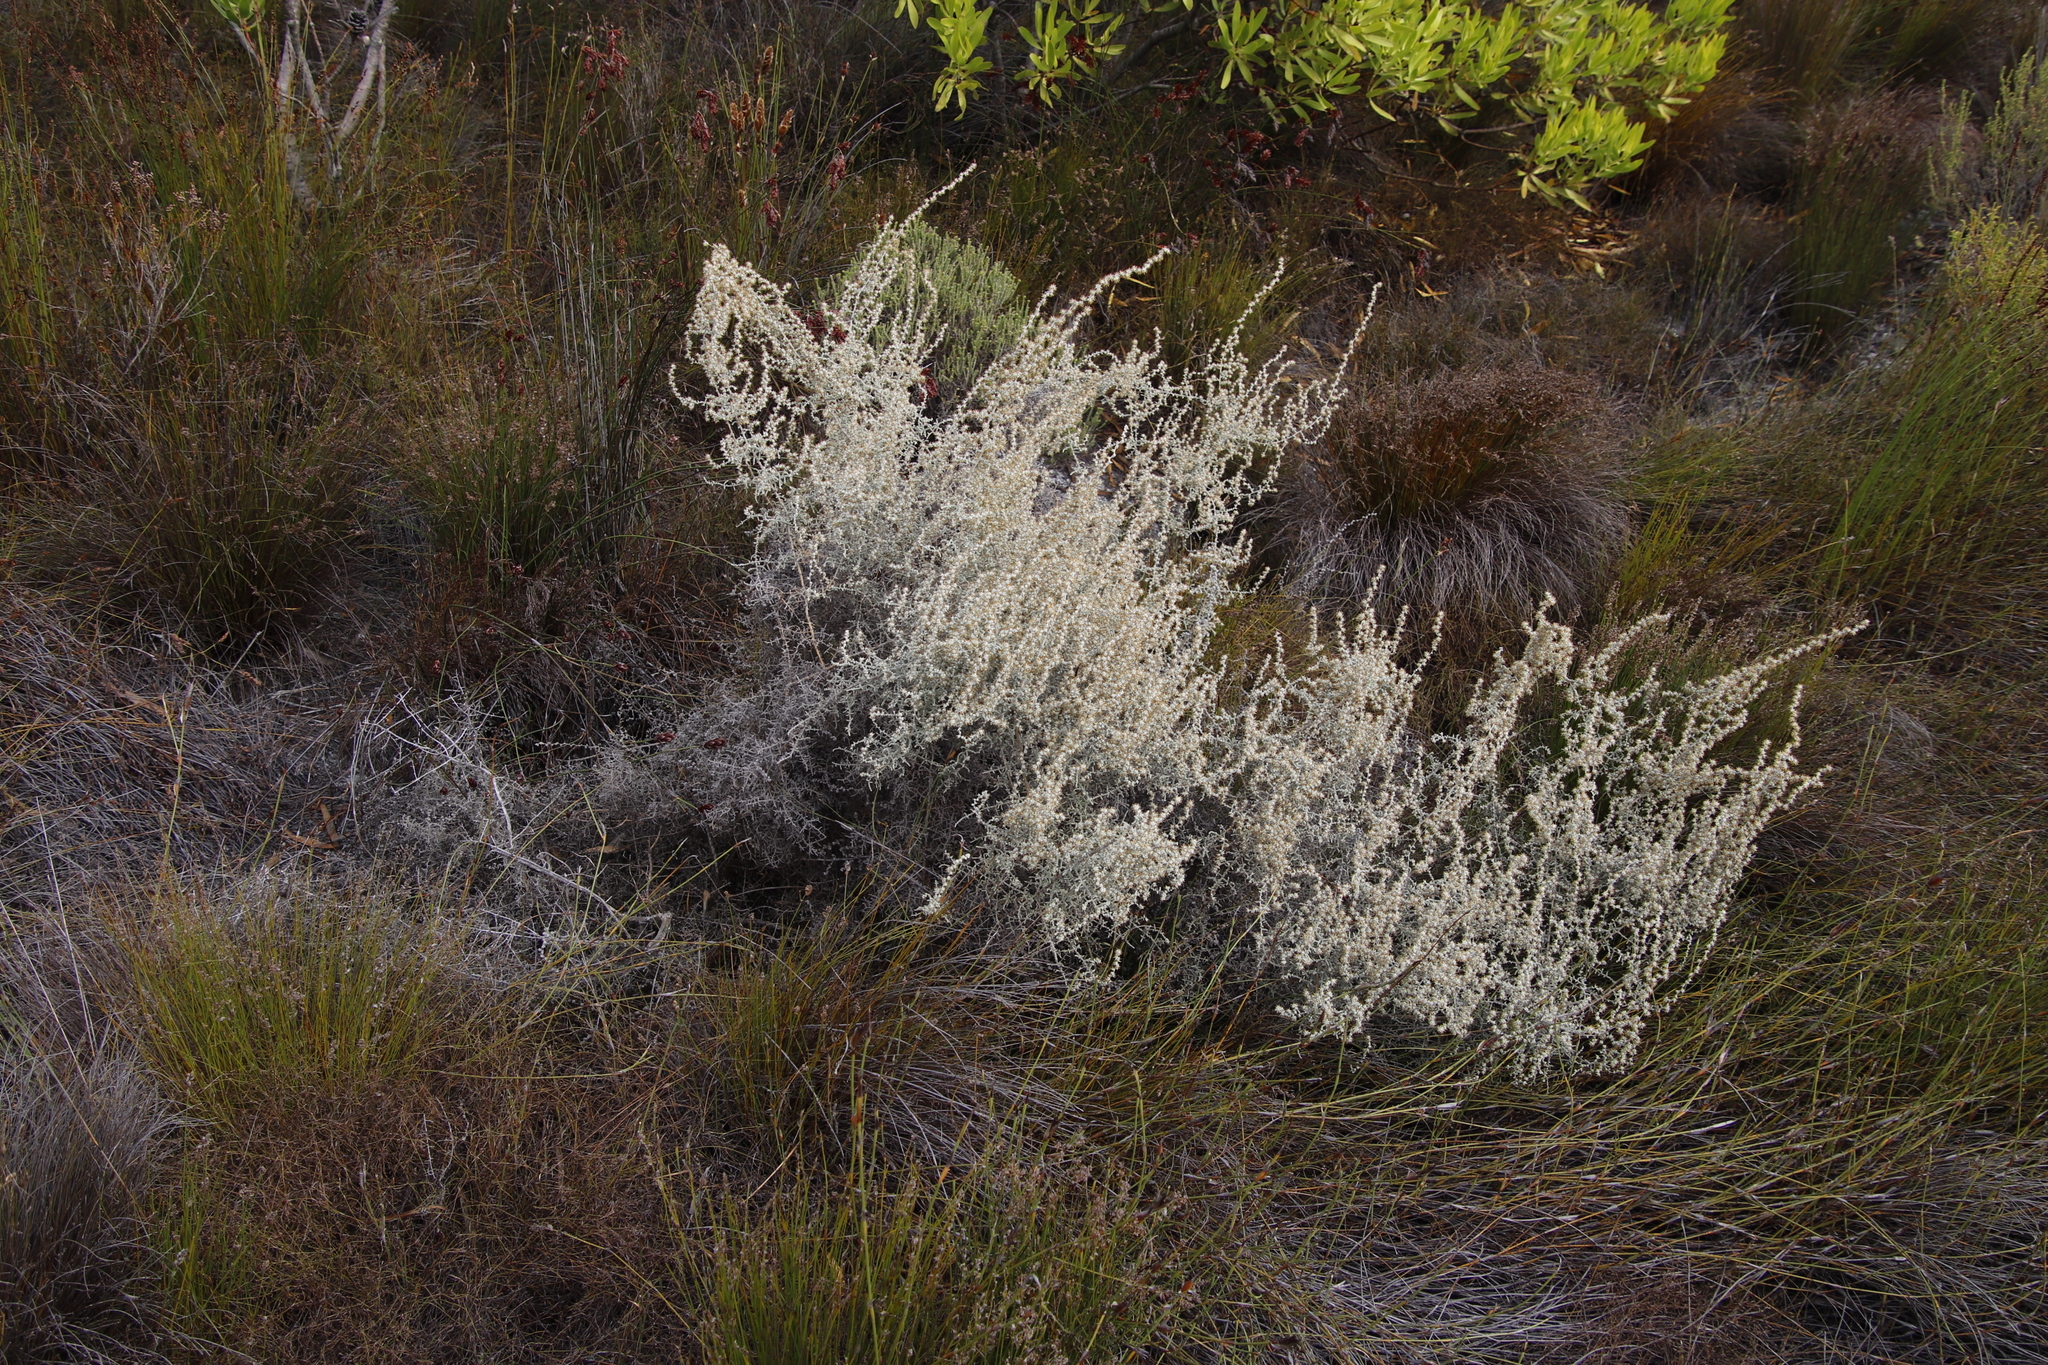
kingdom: Plantae
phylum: Tracheophyta
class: Magnoliopsida
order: Asterales
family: Asteraceae
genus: Seriphium
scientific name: Seriphium plumosum
